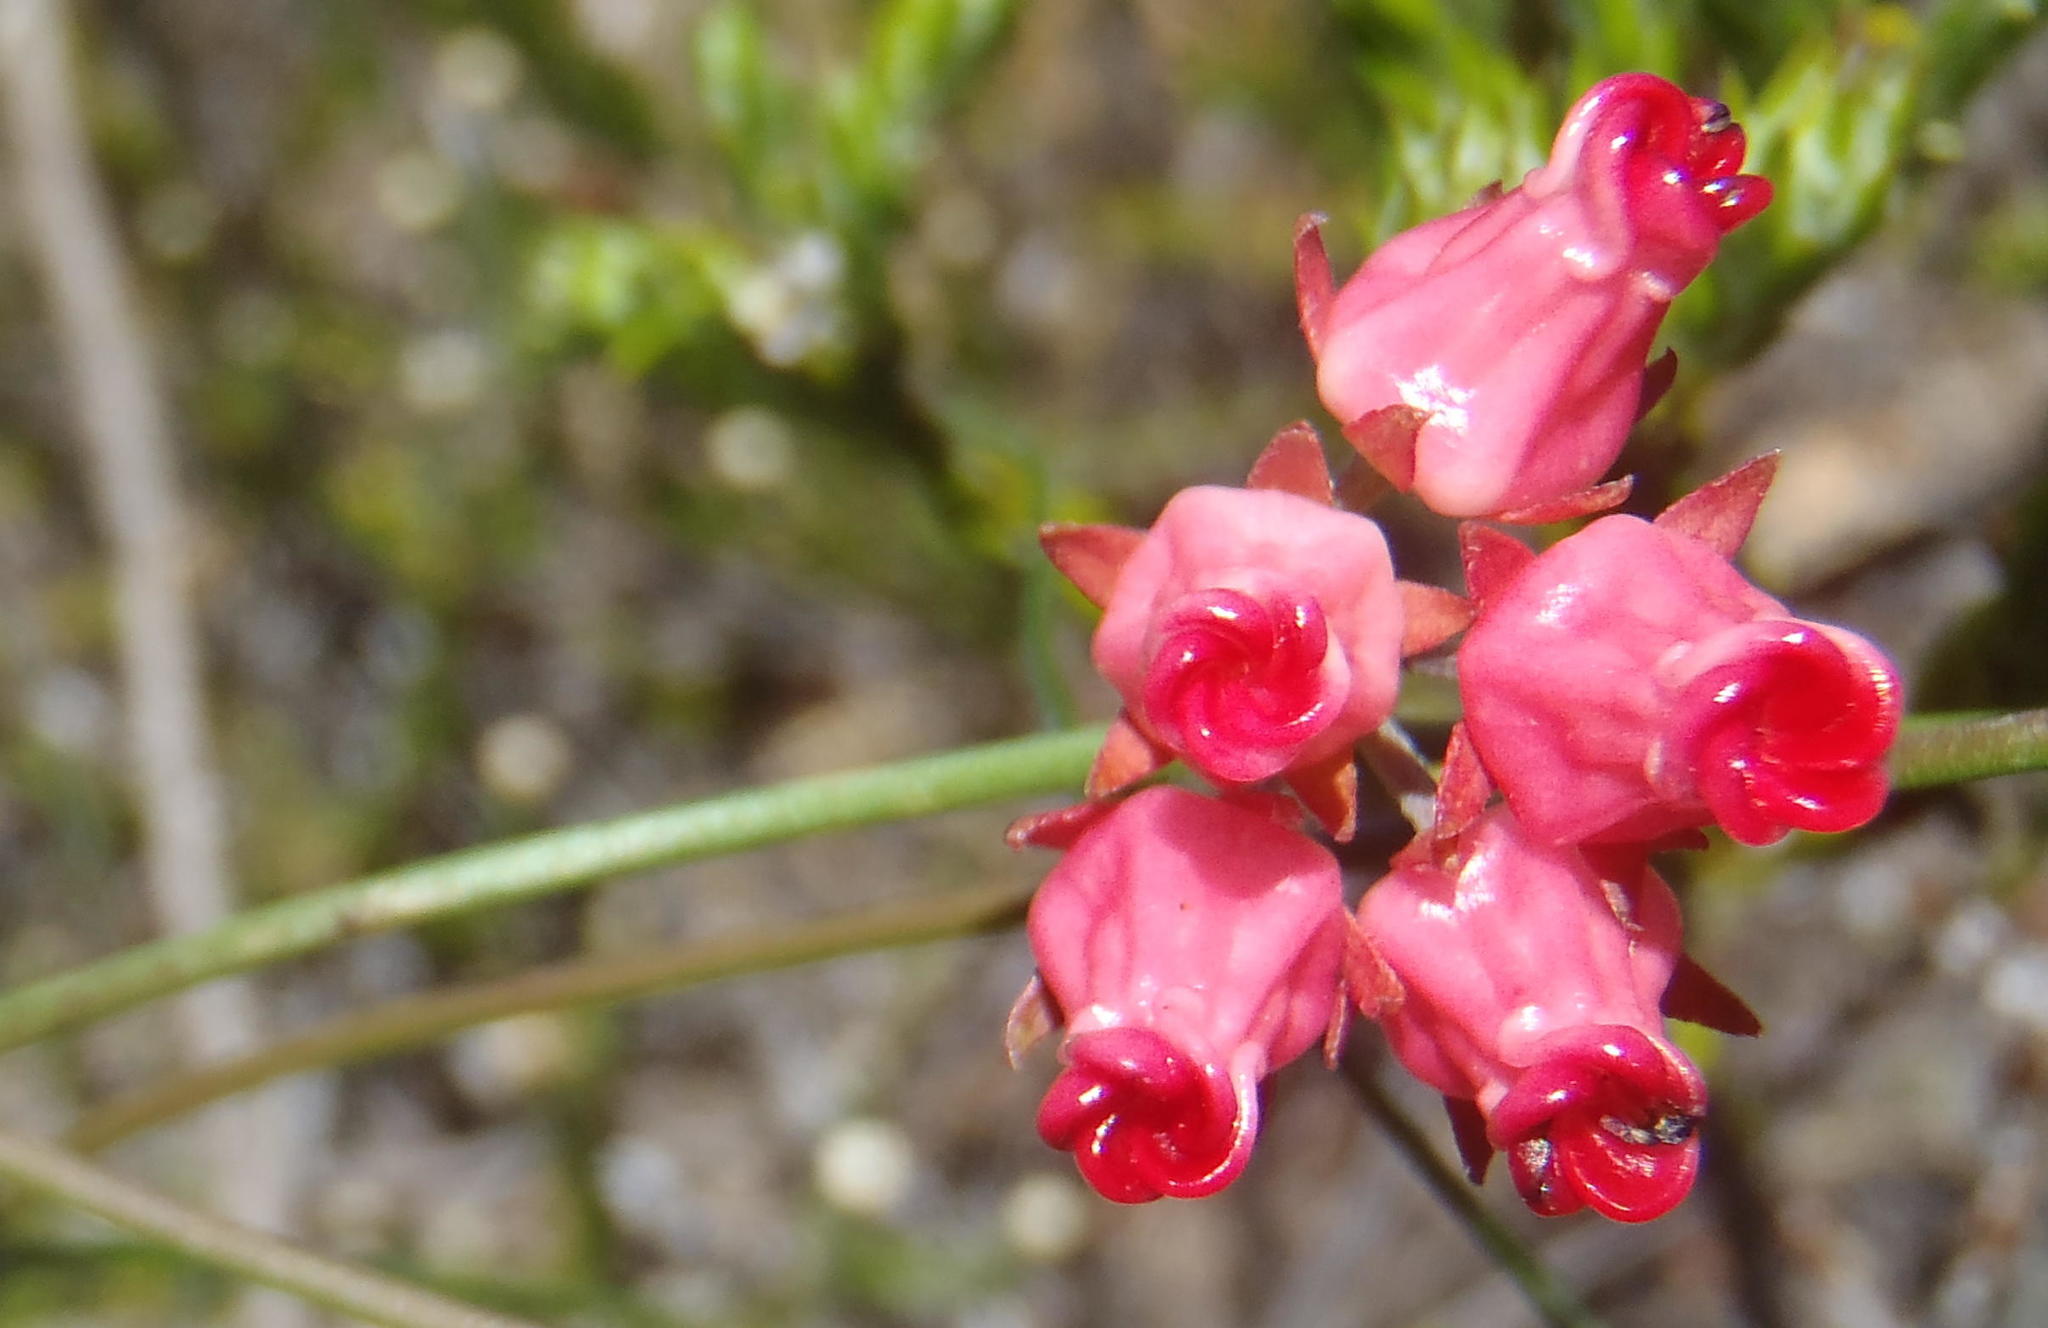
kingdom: Plantae
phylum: Tracheophyta
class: Magnoliopsida
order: Gentianales
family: Apocynaceae
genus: Microloma
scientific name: Microloma tenuifolium
